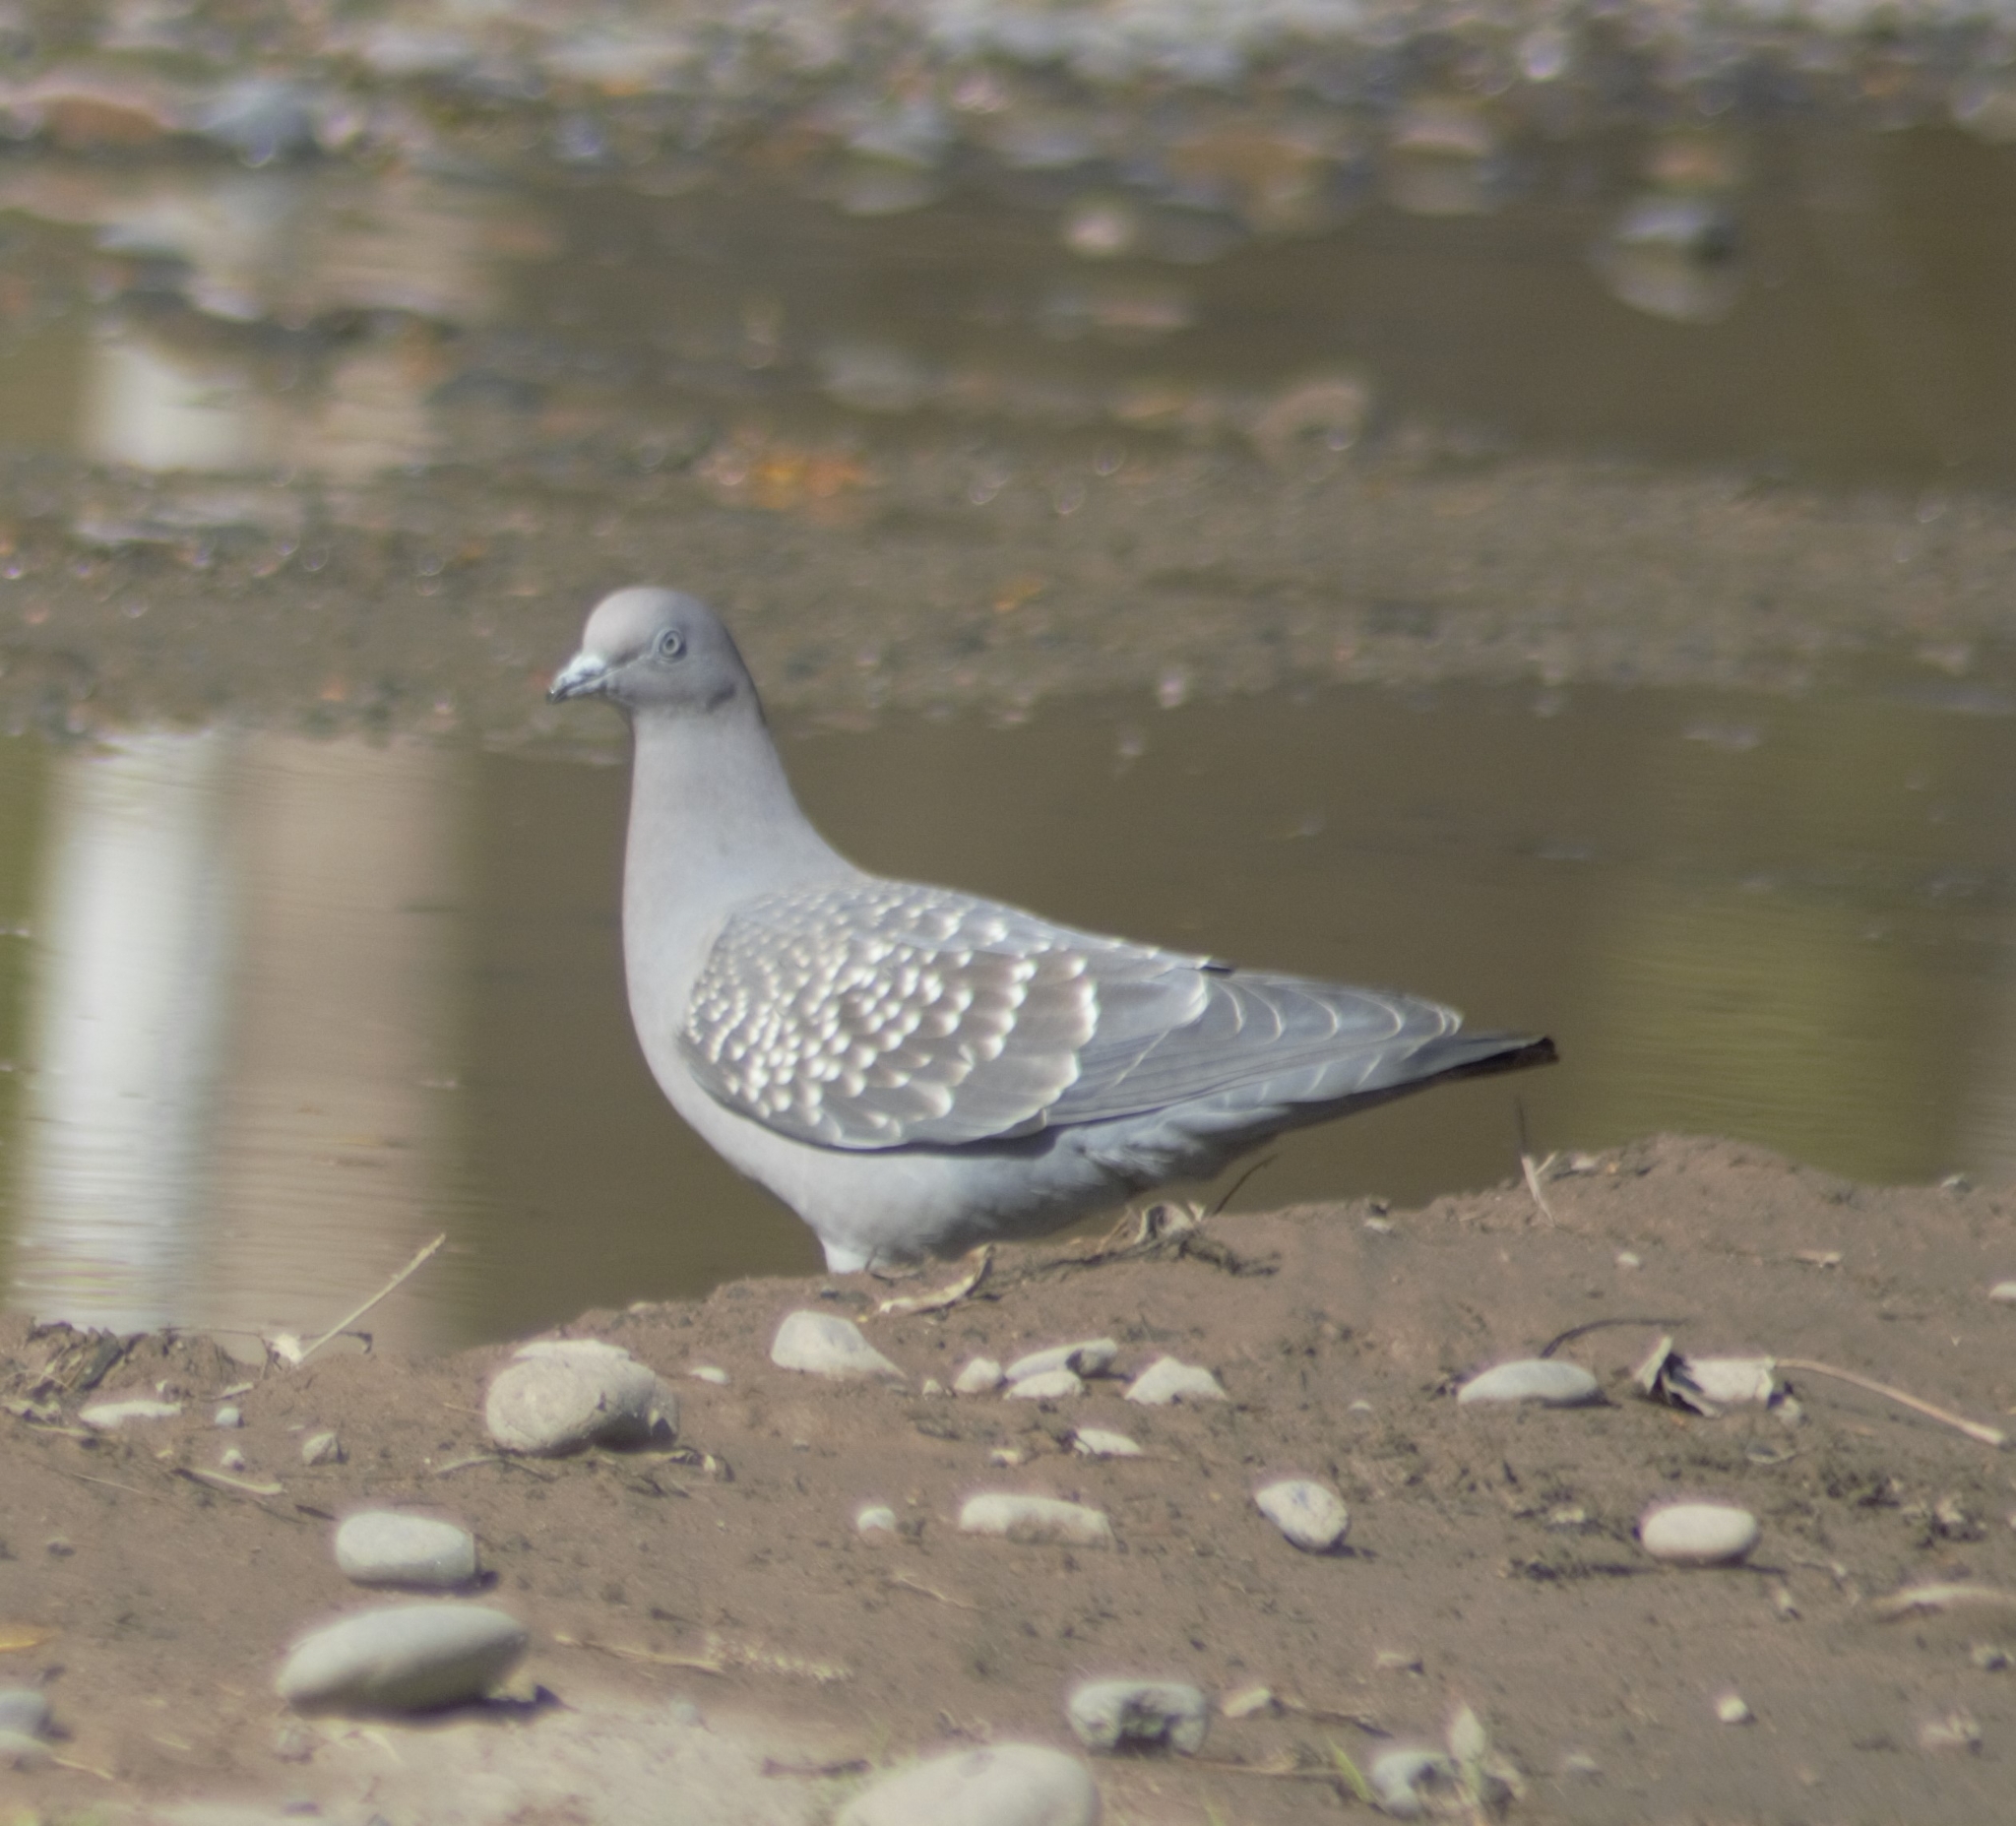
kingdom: Animalia
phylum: Chordata
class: Aves
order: Columbiformes
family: Columbidae
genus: Patagioenas
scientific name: Patagioenas maculosa
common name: Spot-winged pigeon
